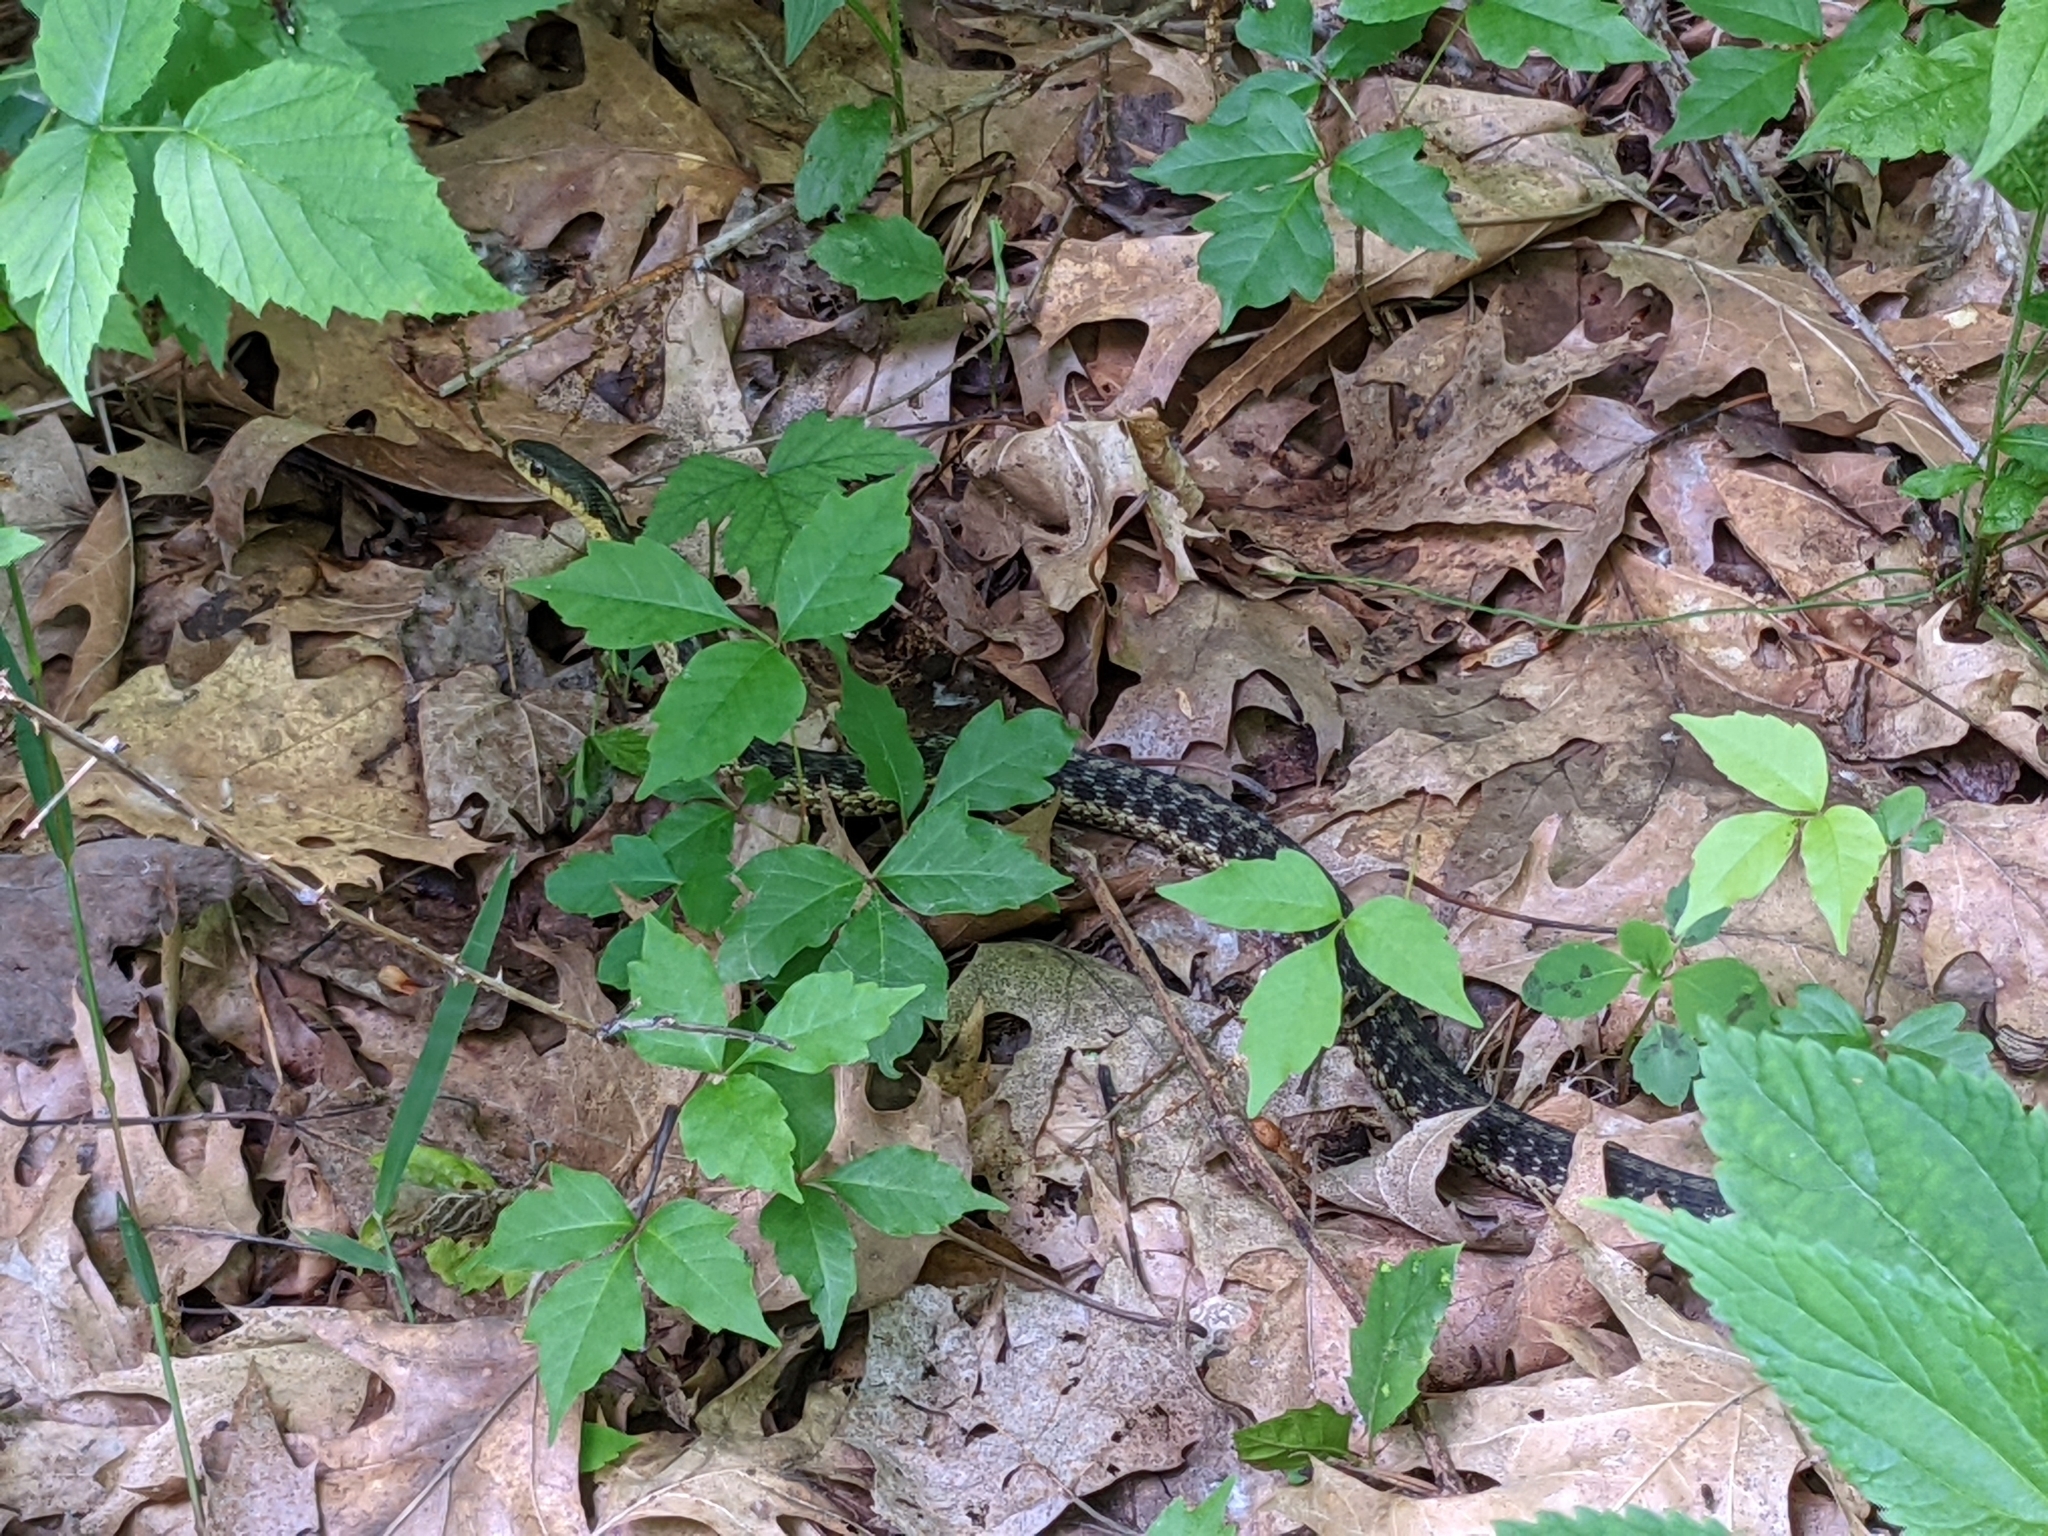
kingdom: Animalia
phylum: Chordata
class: Squamata
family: Colubridae
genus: Thamnophis
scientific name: Thamnophis sirtalis
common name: Common garter snake
